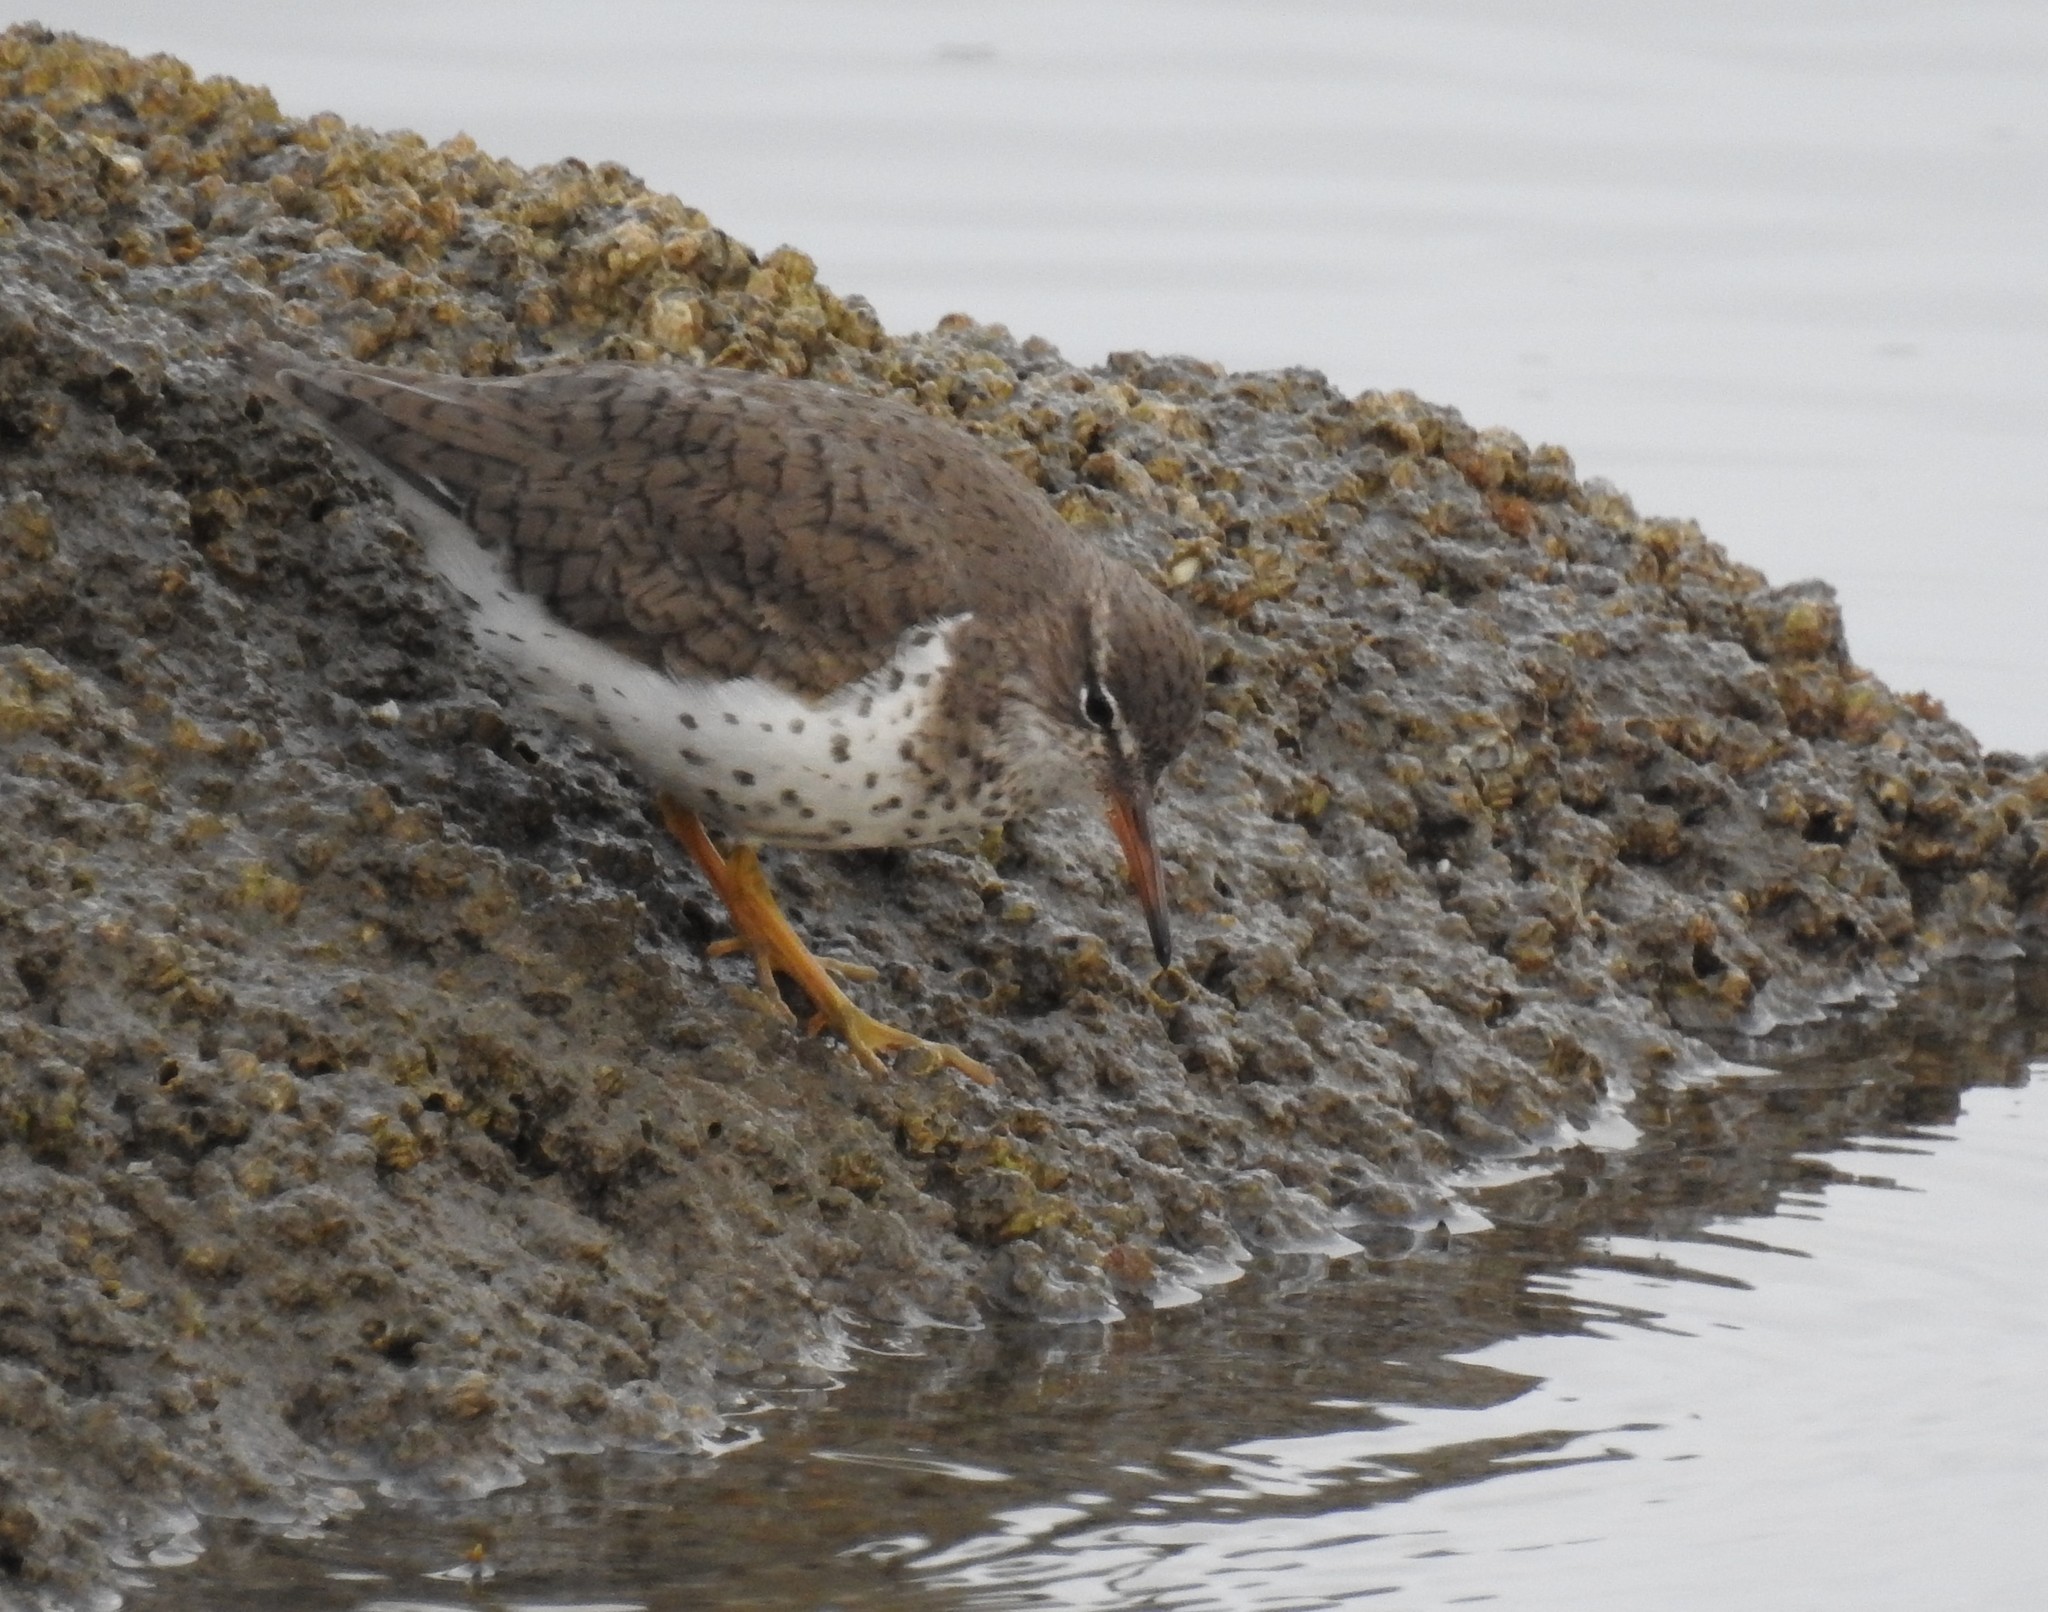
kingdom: Animalia
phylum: Chordata
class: Aves
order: Charadriiformes
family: Scolopacidae
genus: Actitis
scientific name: Actitis macularius
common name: Spotted sandpiper
